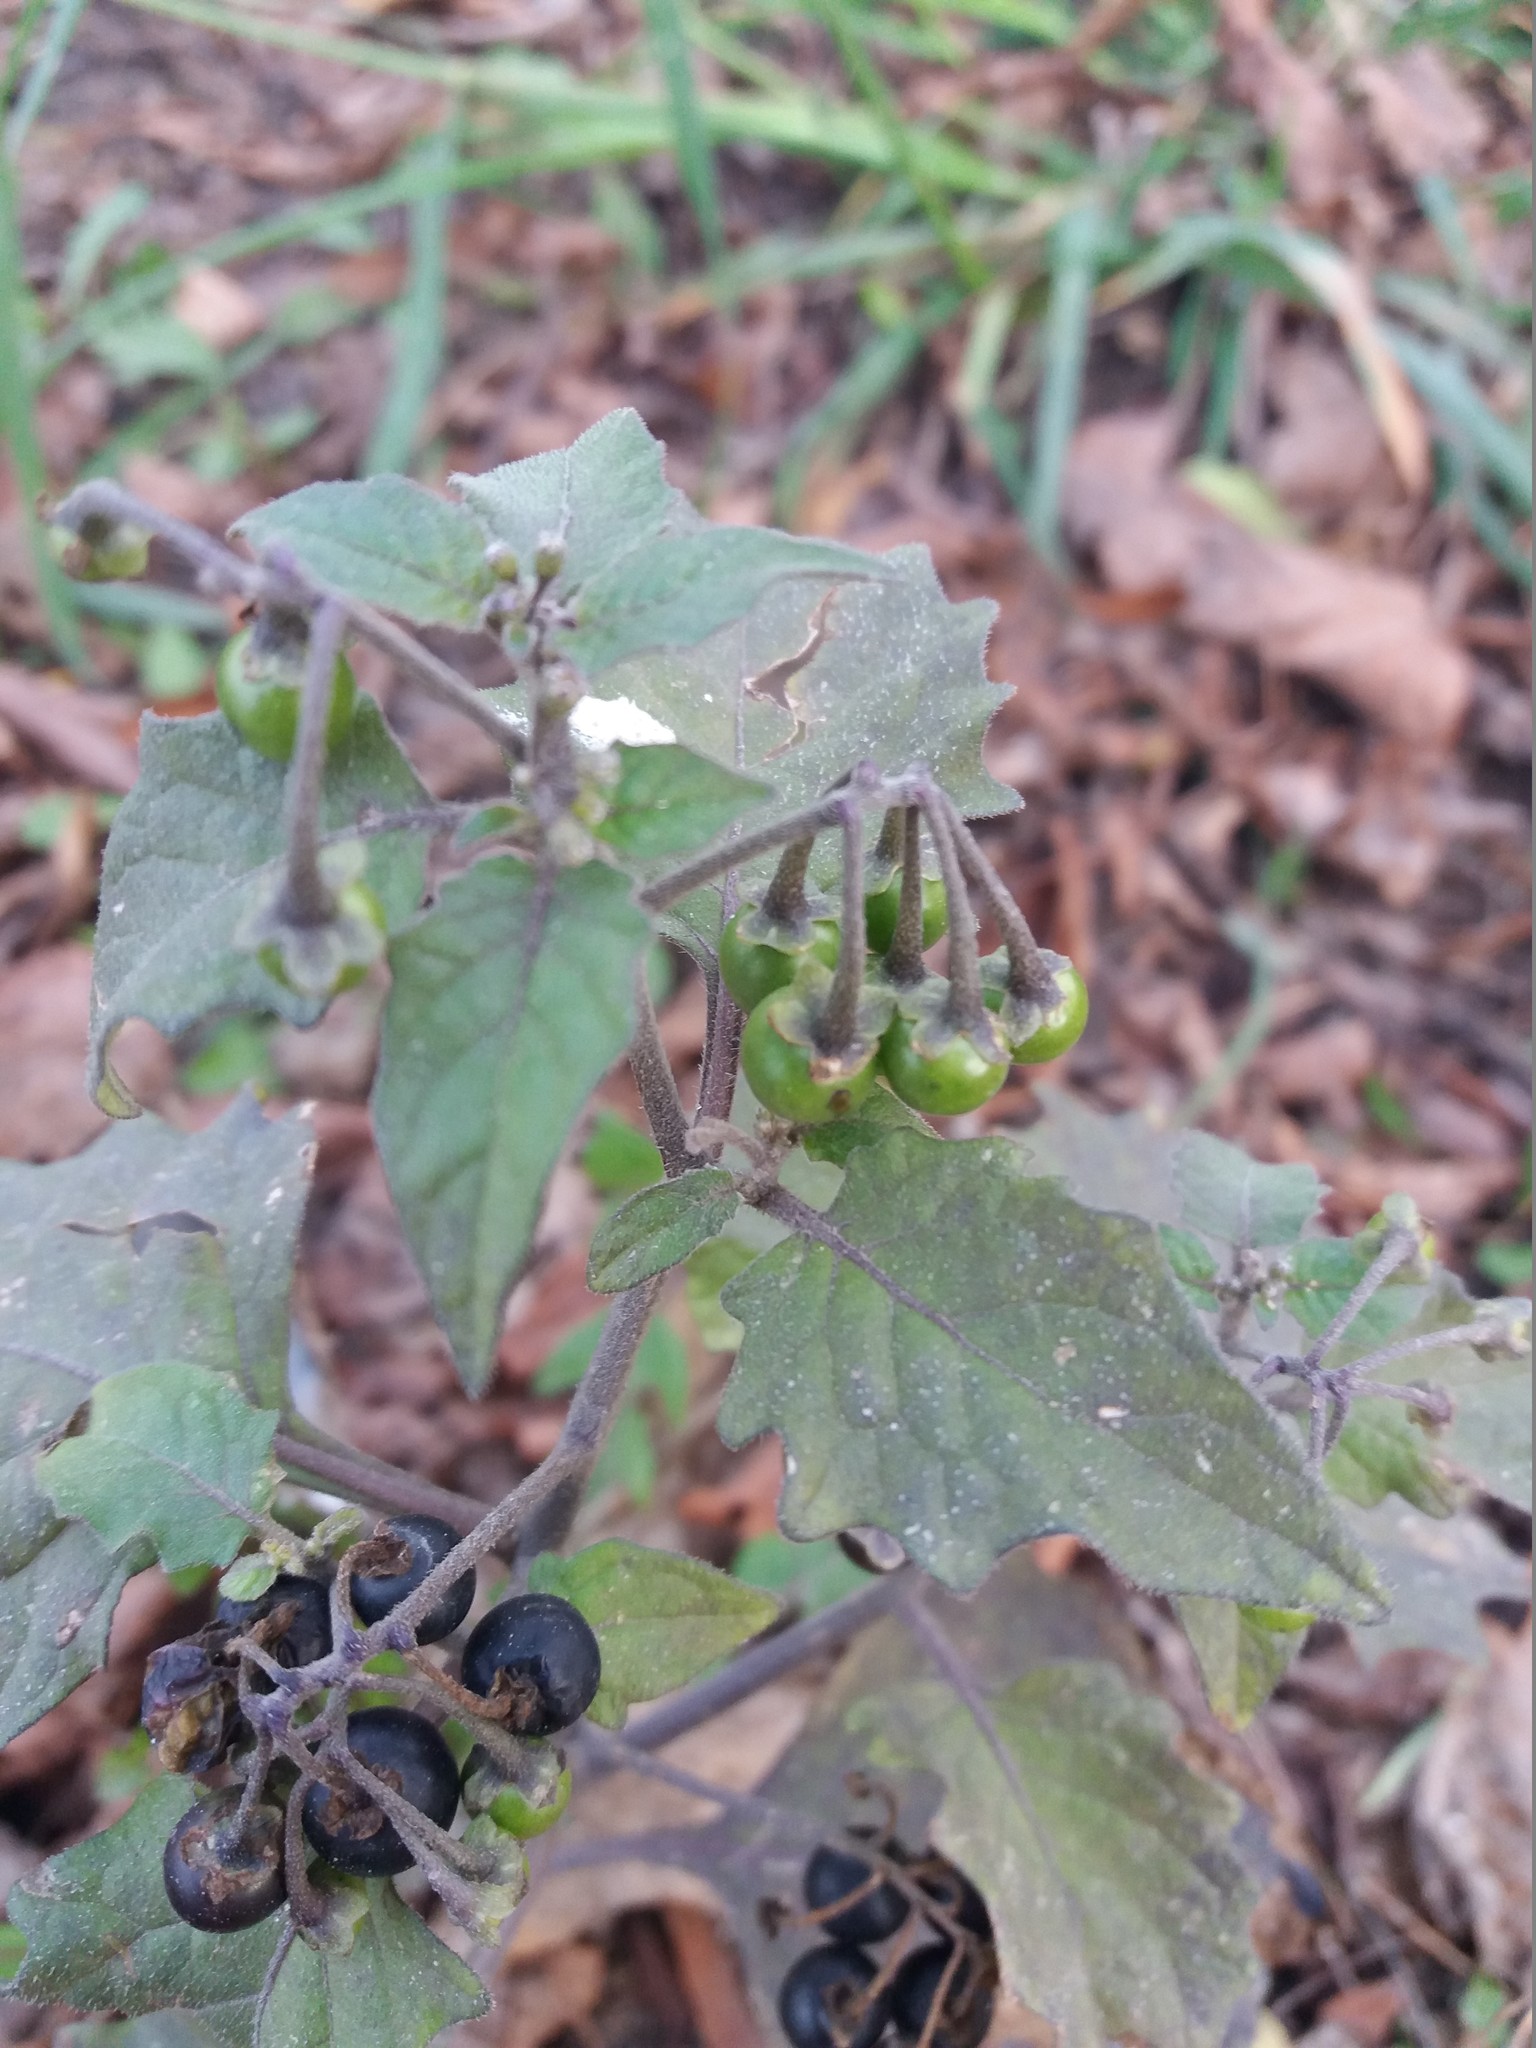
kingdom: Plantae
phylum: Tracheophyta
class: Magnoliopsida
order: Solanales
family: Solanaceae
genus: Solanum
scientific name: Solanum nigrum
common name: Black nightshade
